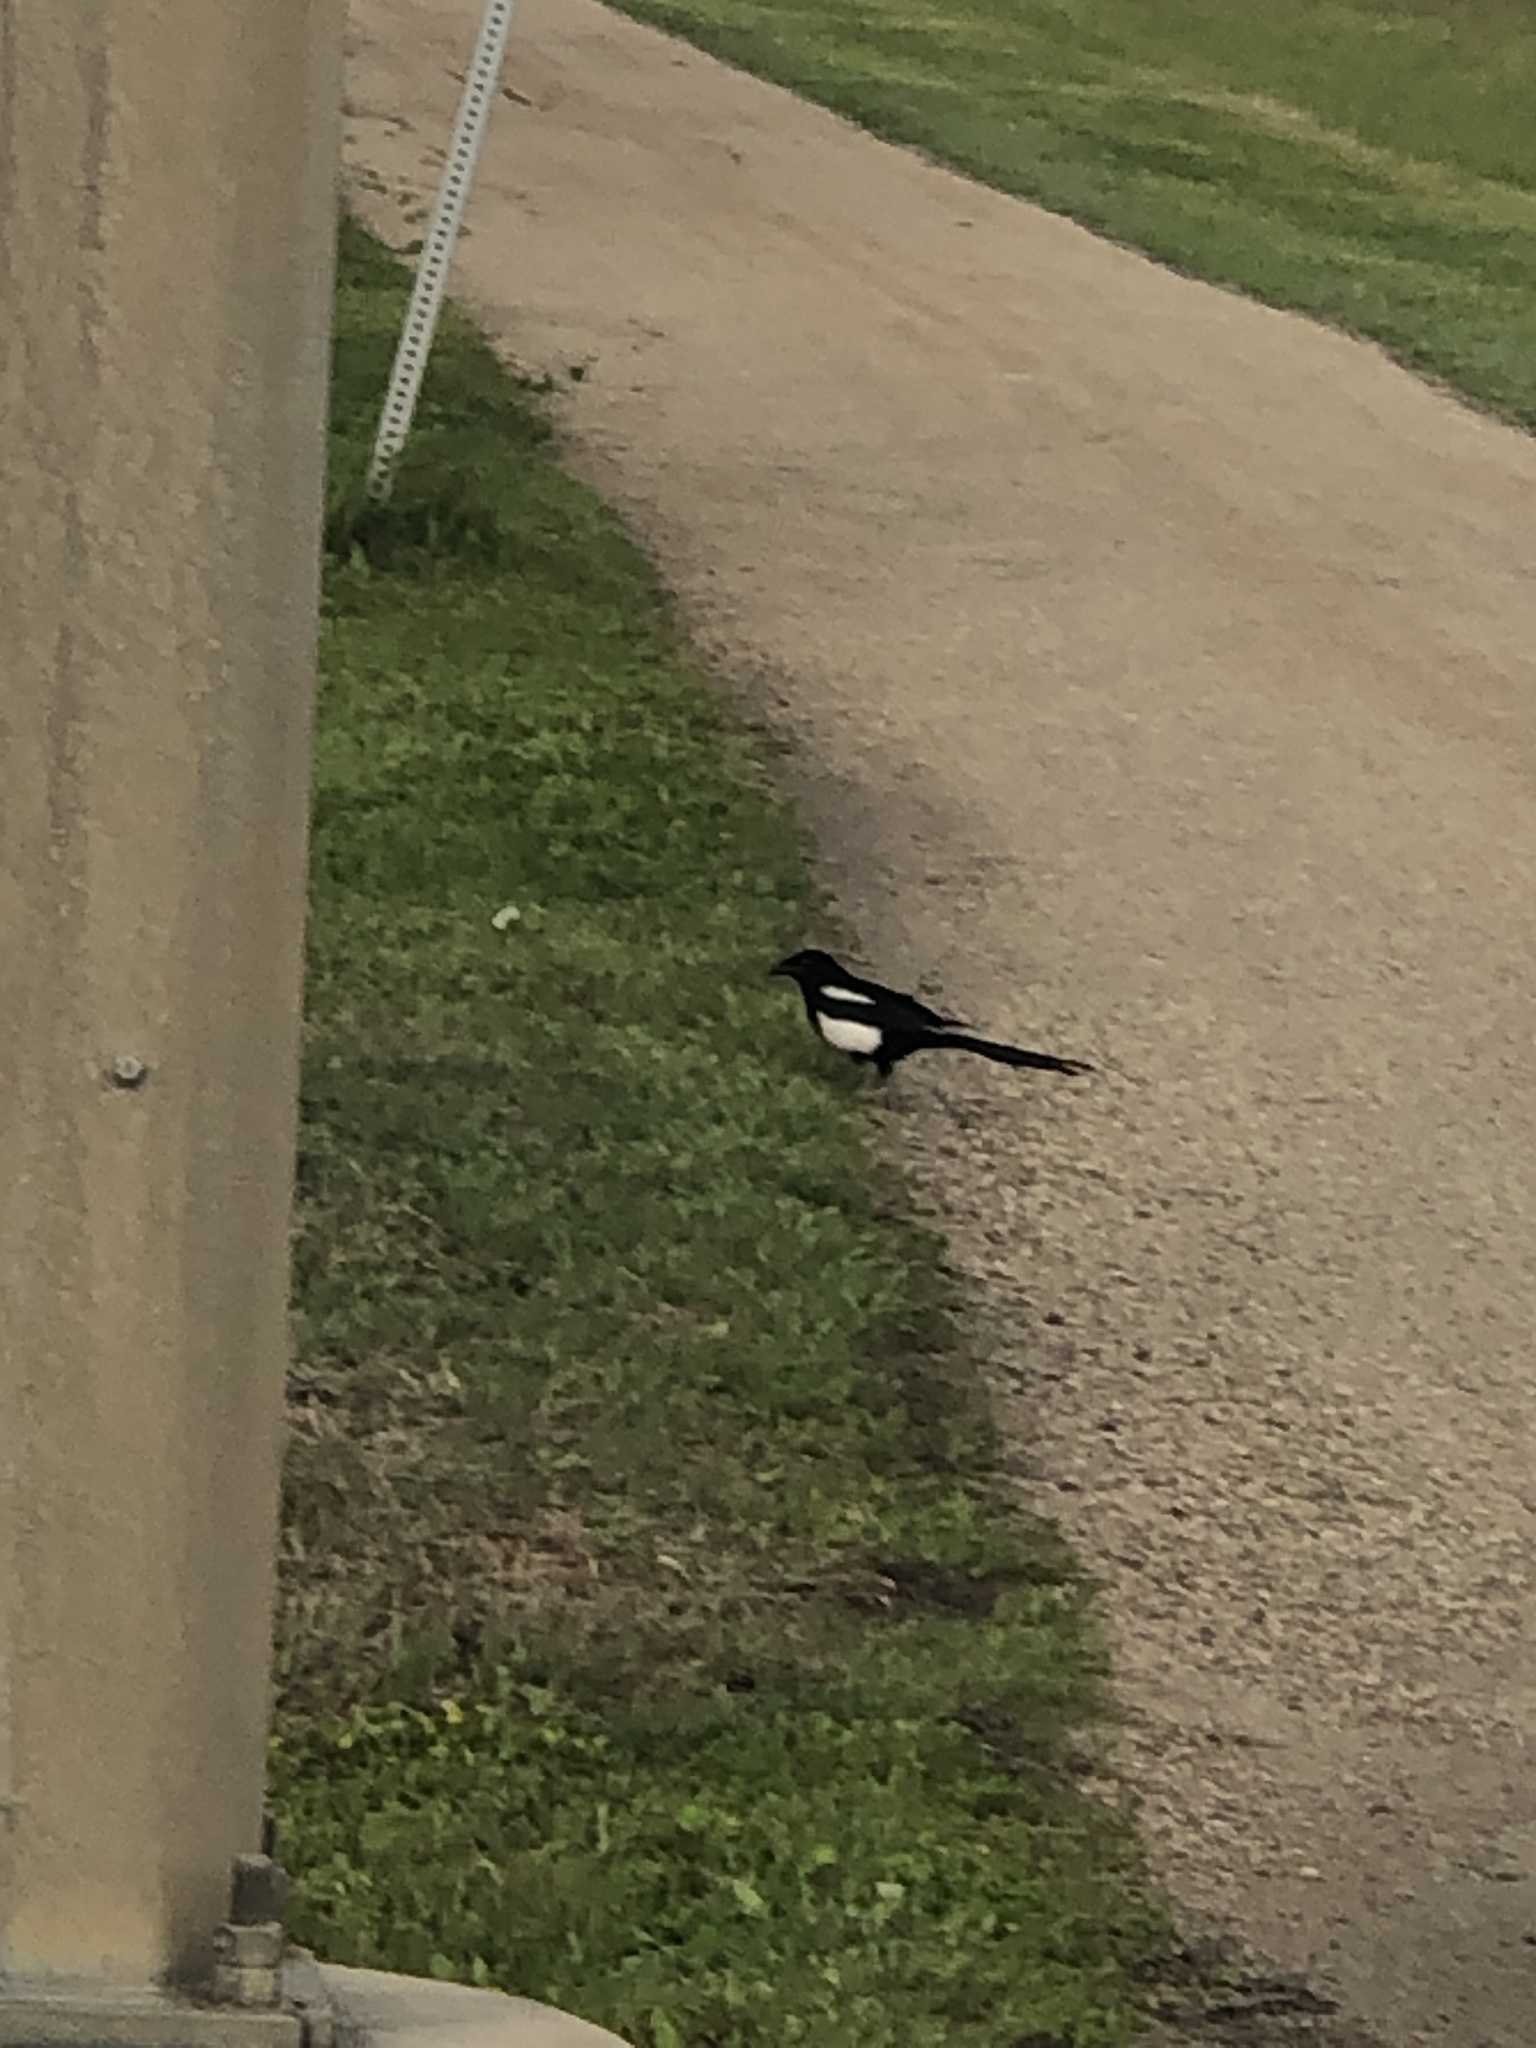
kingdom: Animalia
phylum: Chordata
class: Aves
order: Passeriformes
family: Corvidae
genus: Pica
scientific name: Pica hudsonia
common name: Black-billed magpie
